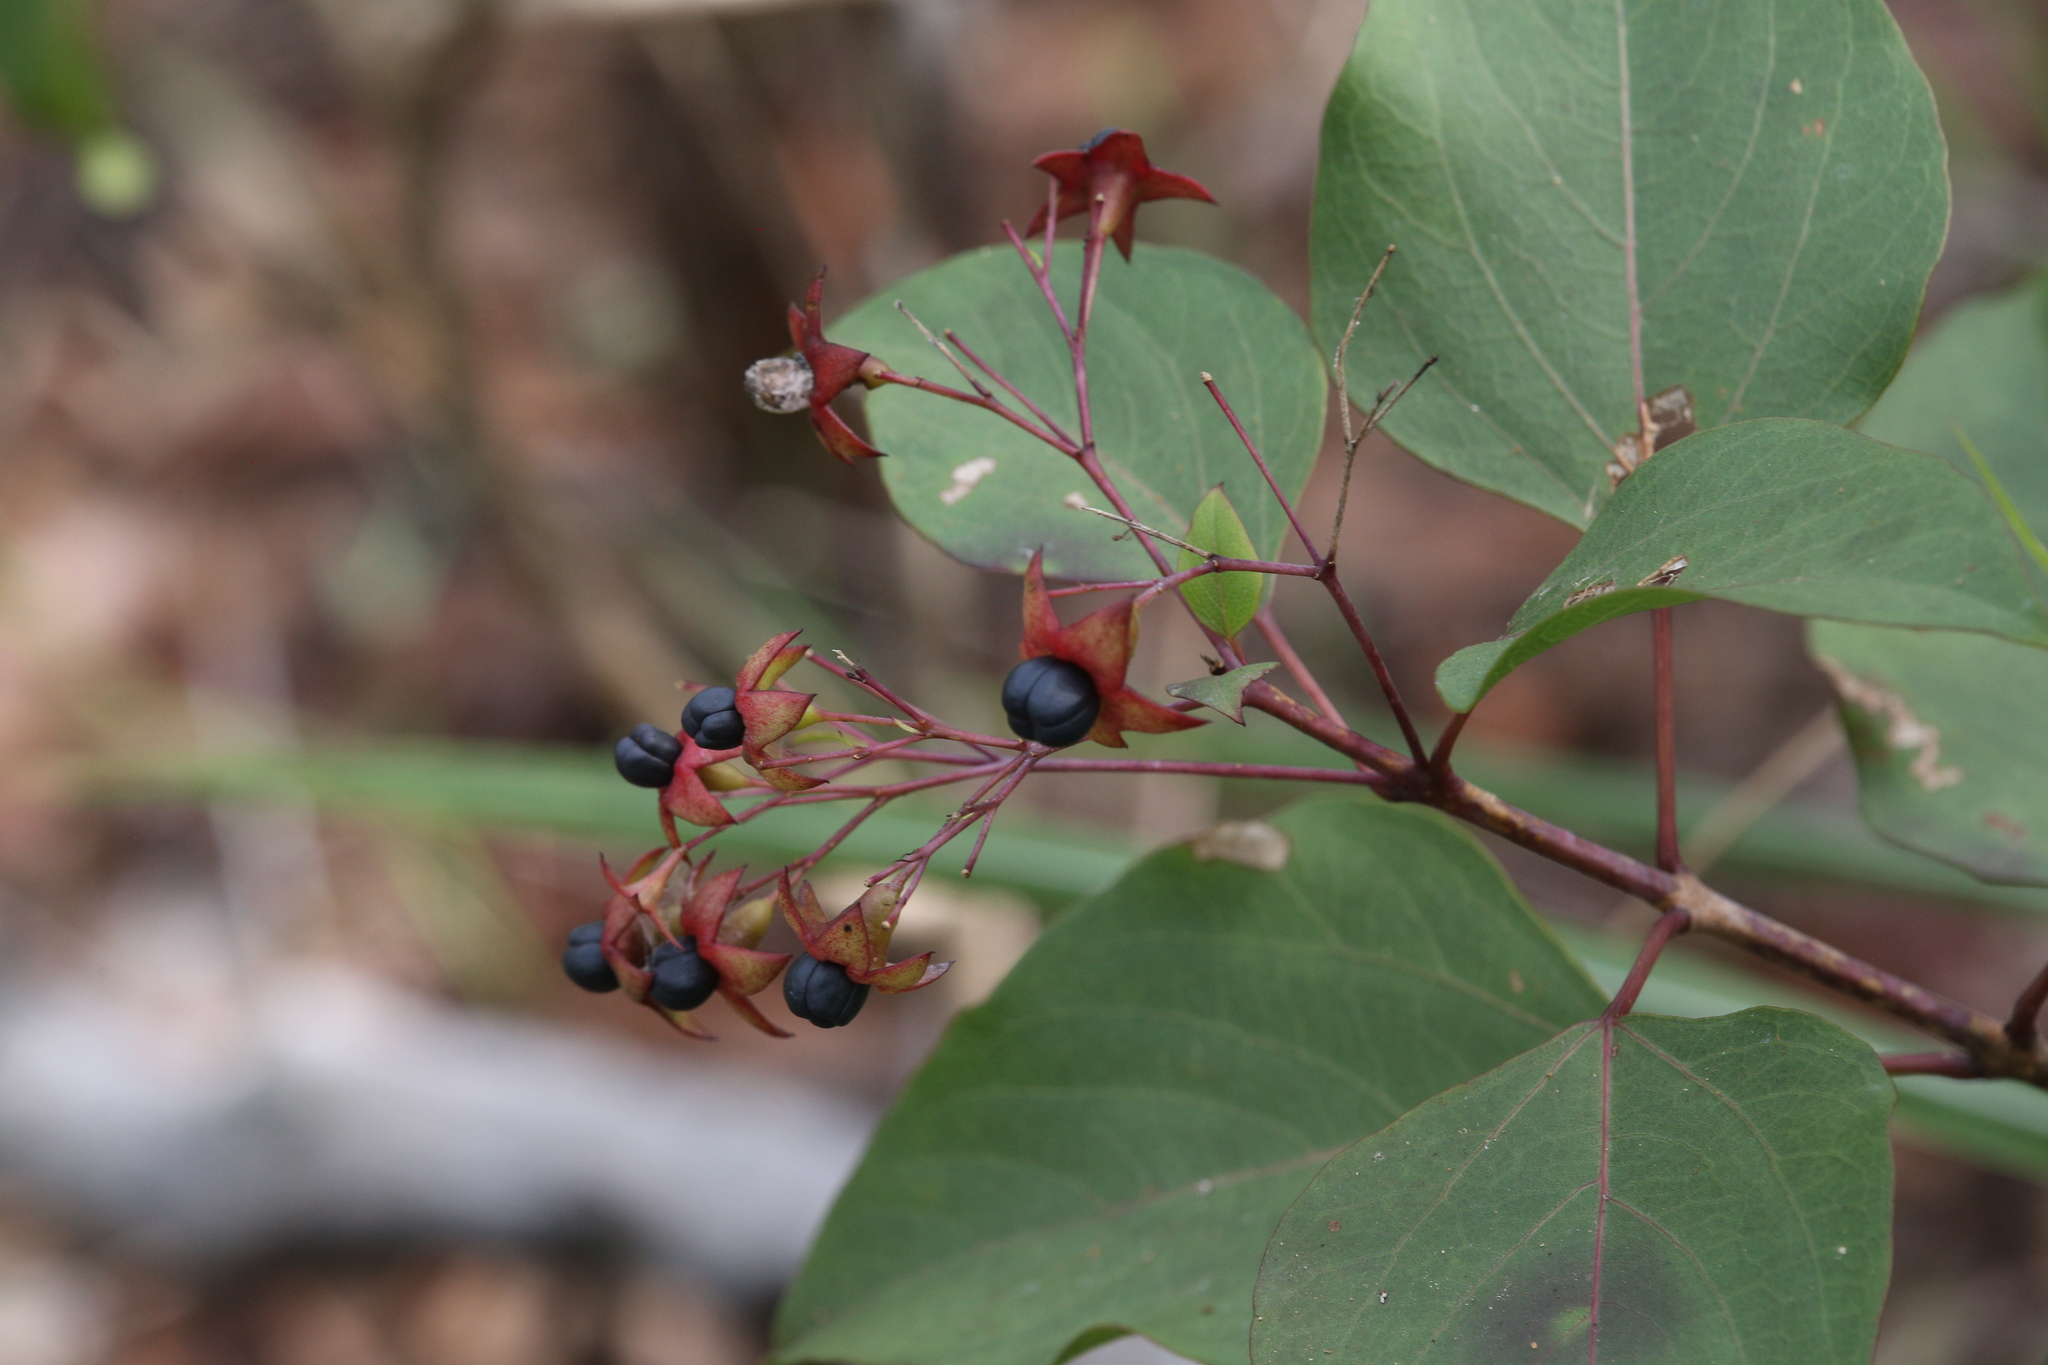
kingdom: Plantae
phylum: Tracheophyta
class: Magnoliopsida
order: Lamiales
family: Lamiaceae
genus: Clerodendrum
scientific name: Clerodendrum floribundum
